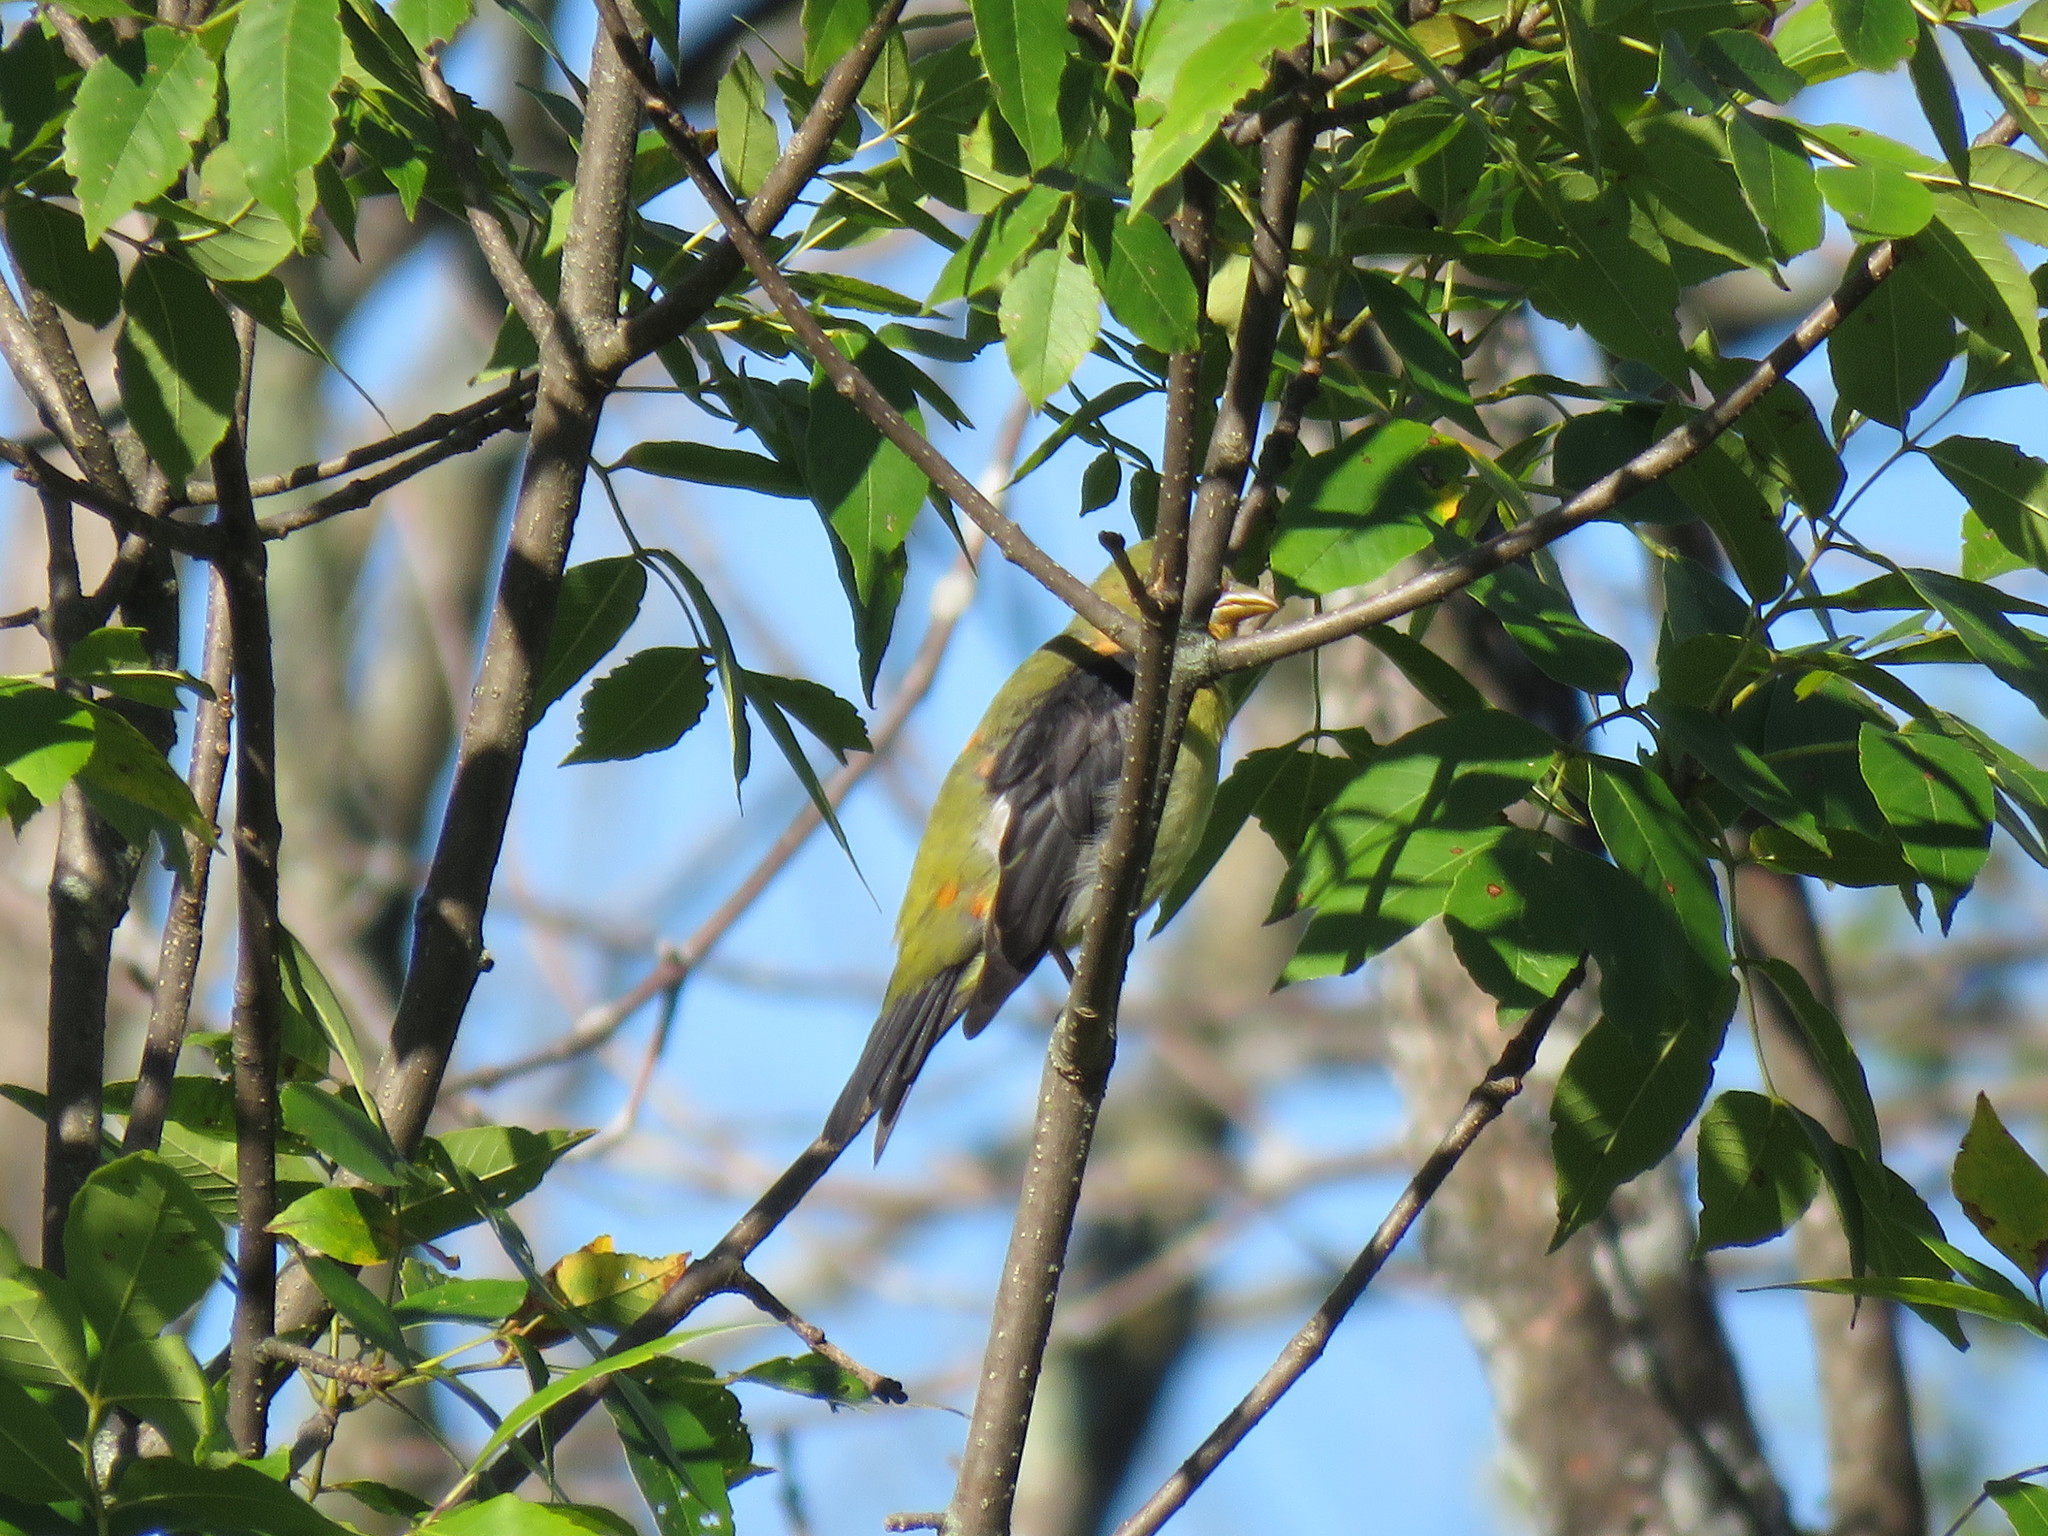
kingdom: Animalia
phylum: Chordata
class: Aves
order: Passeriformes
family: Cardinalidae
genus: Piranga
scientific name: Piranga olivacea
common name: Scarlet tanager
